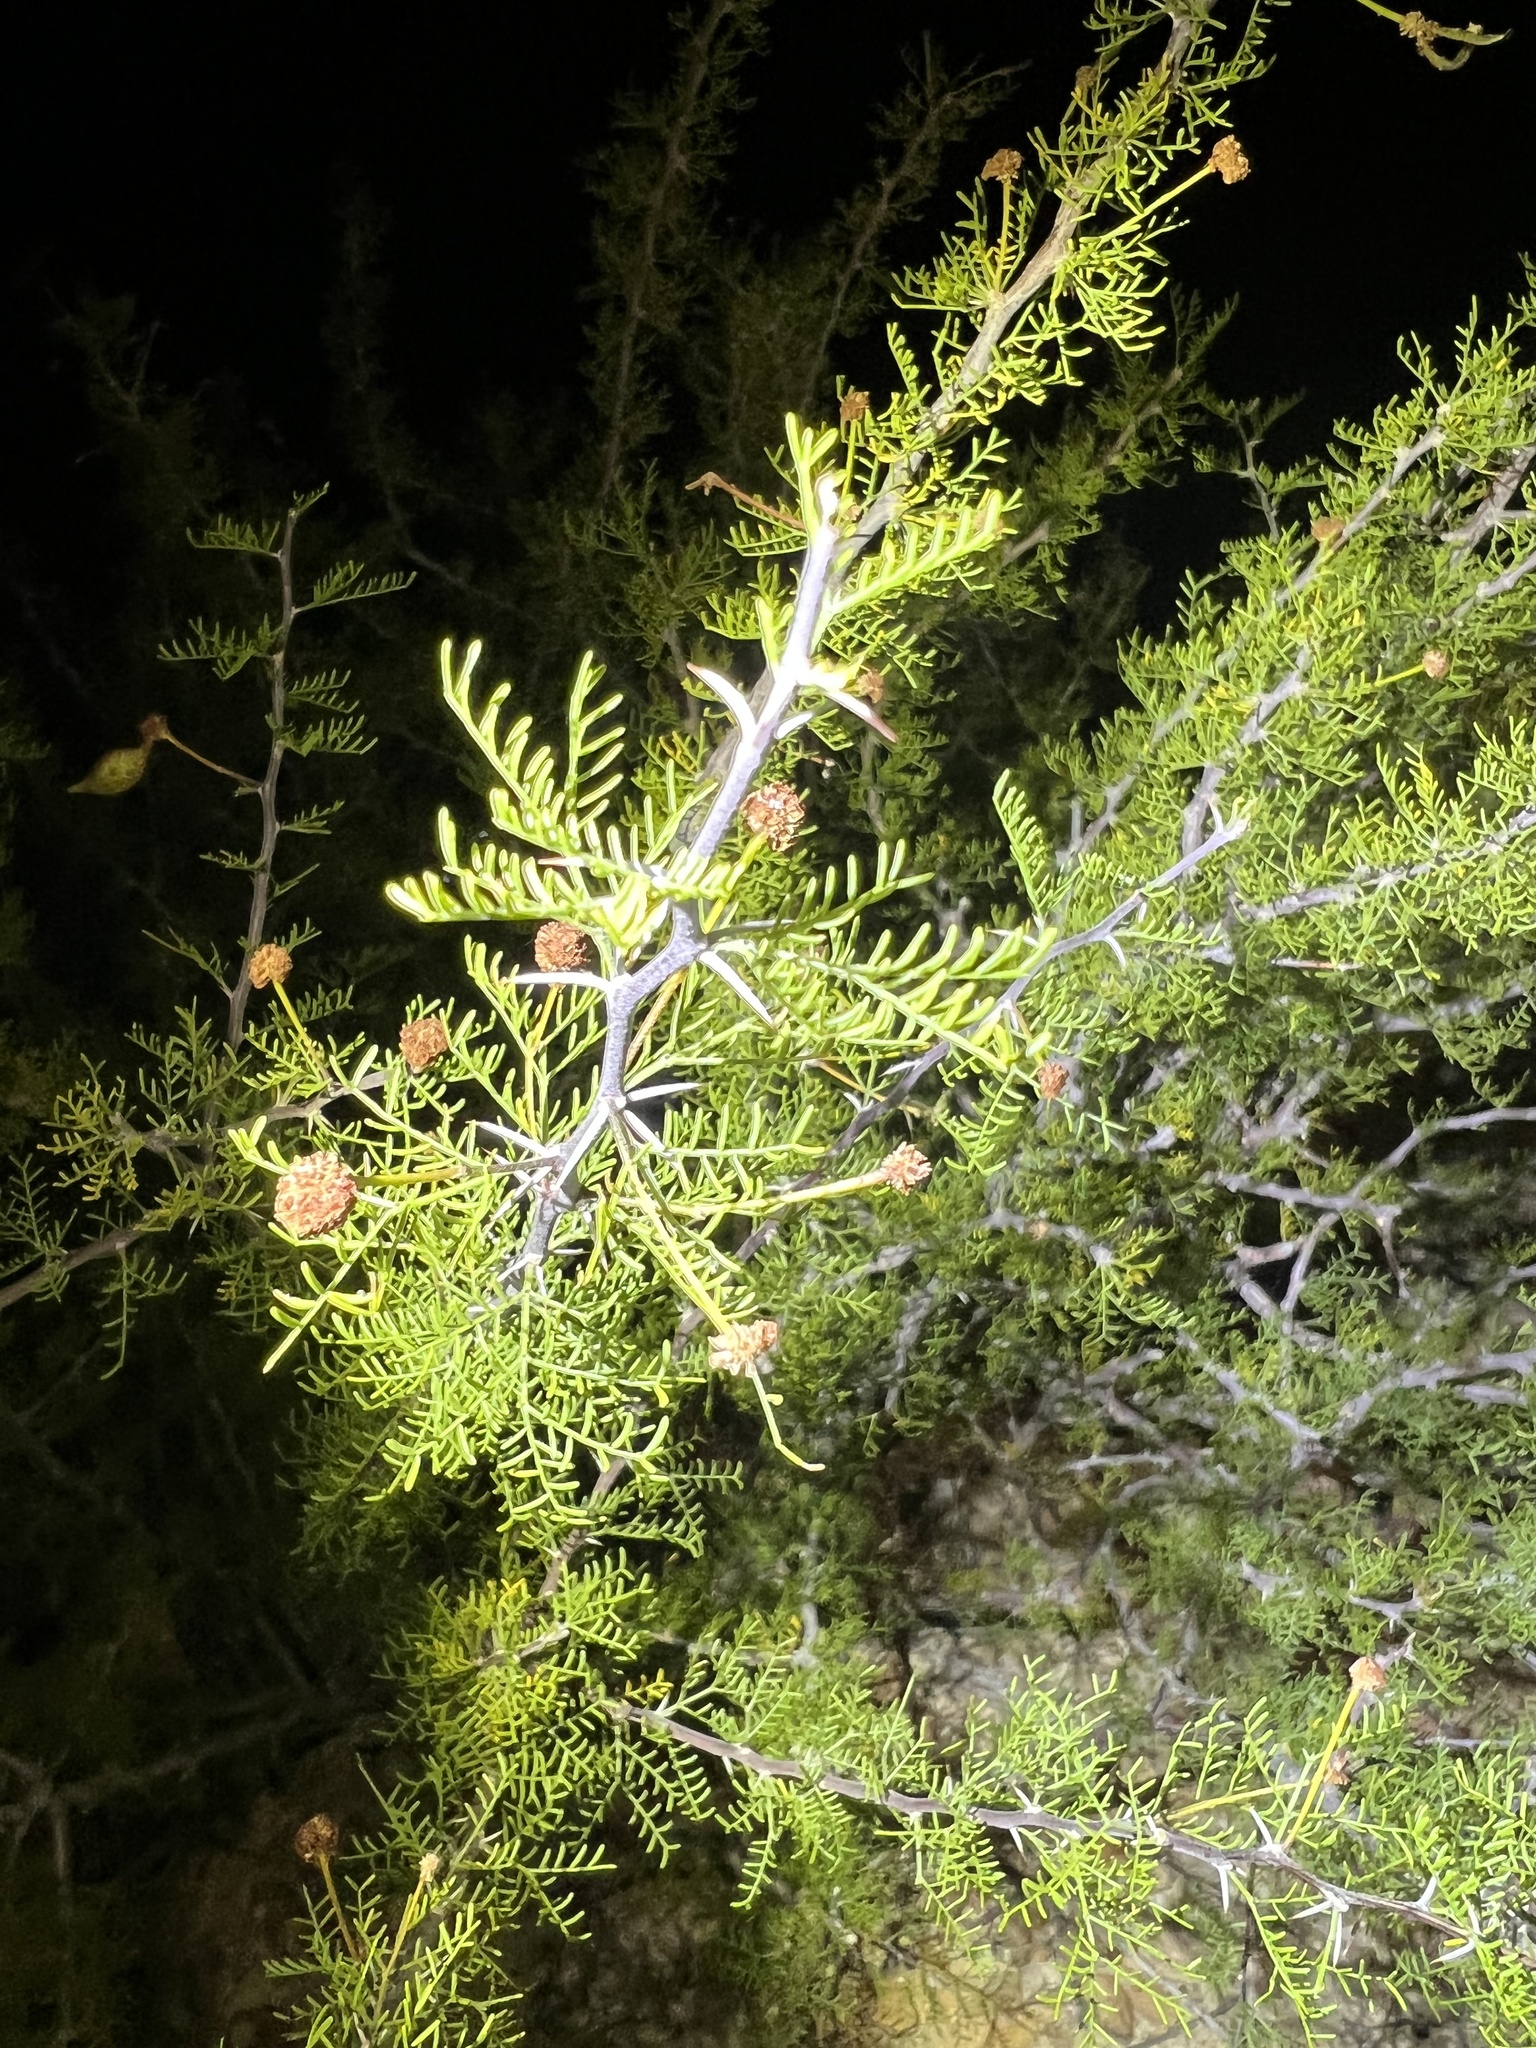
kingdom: Plantae
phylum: Tracheophyta
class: Magnoliopsida
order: Fabales
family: Fabaceae
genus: Vachellia
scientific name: Vachellia schottii
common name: Schott acacia
